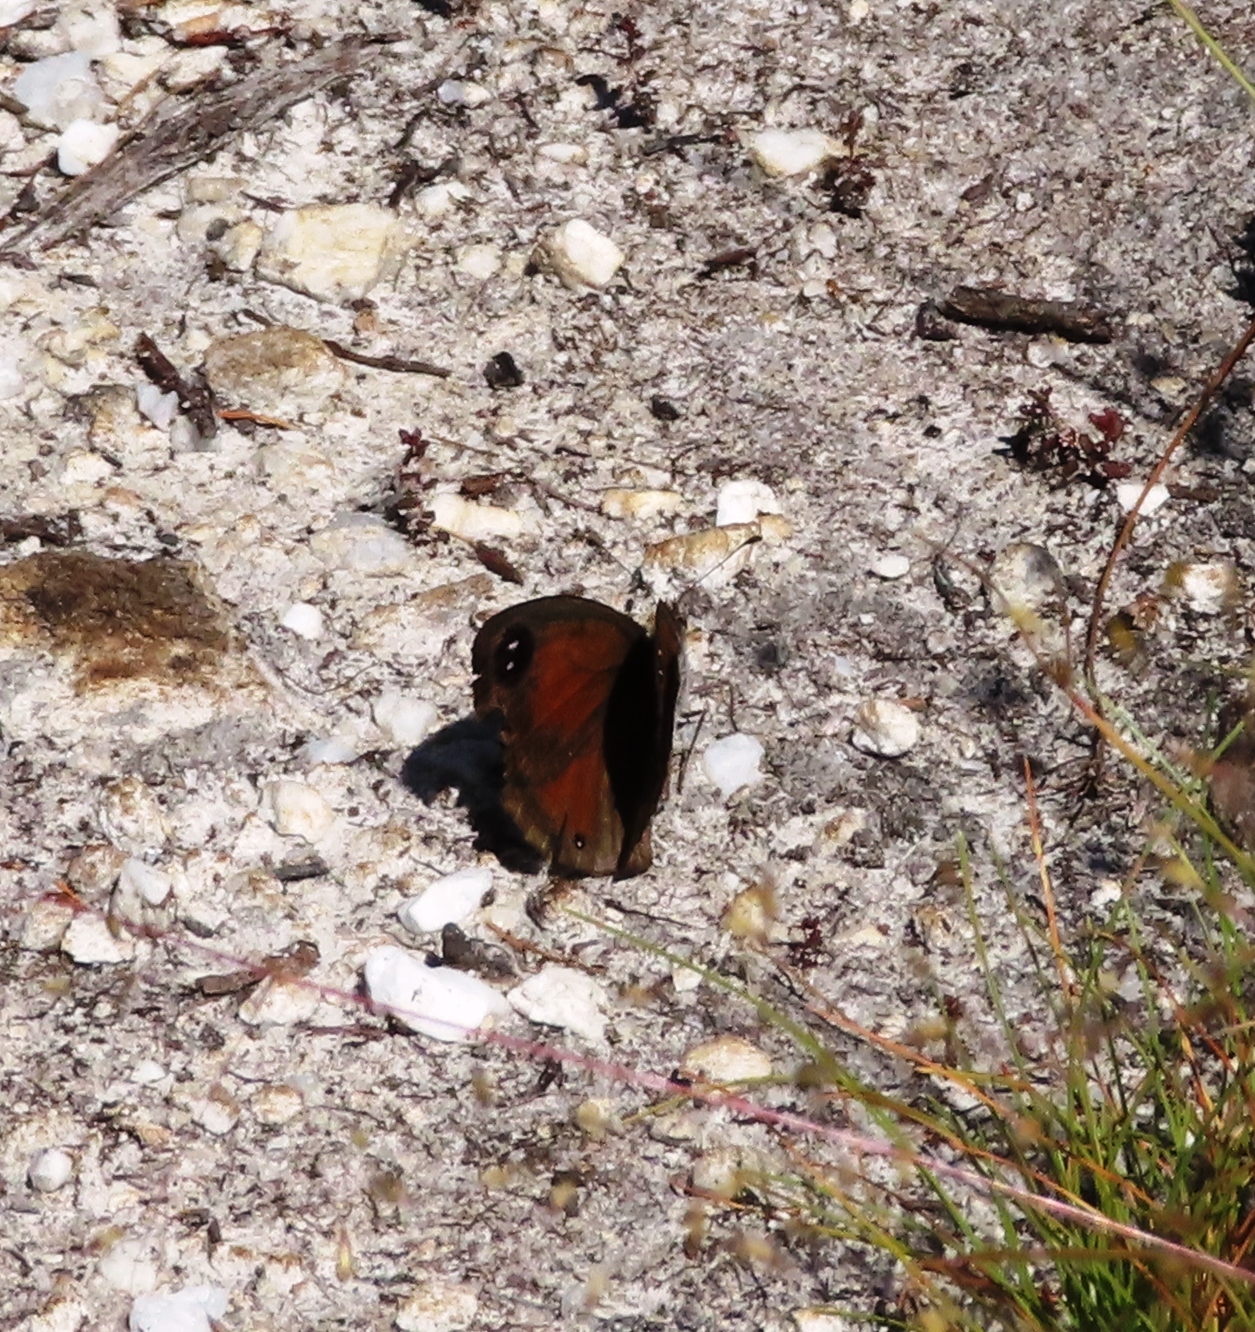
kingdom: Animalia
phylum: Arthropoda
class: Insecta
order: Lepidoptera
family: Nymphalidae
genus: Pseudonympha
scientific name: Pseudonympha hippia
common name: Table mountain brown
